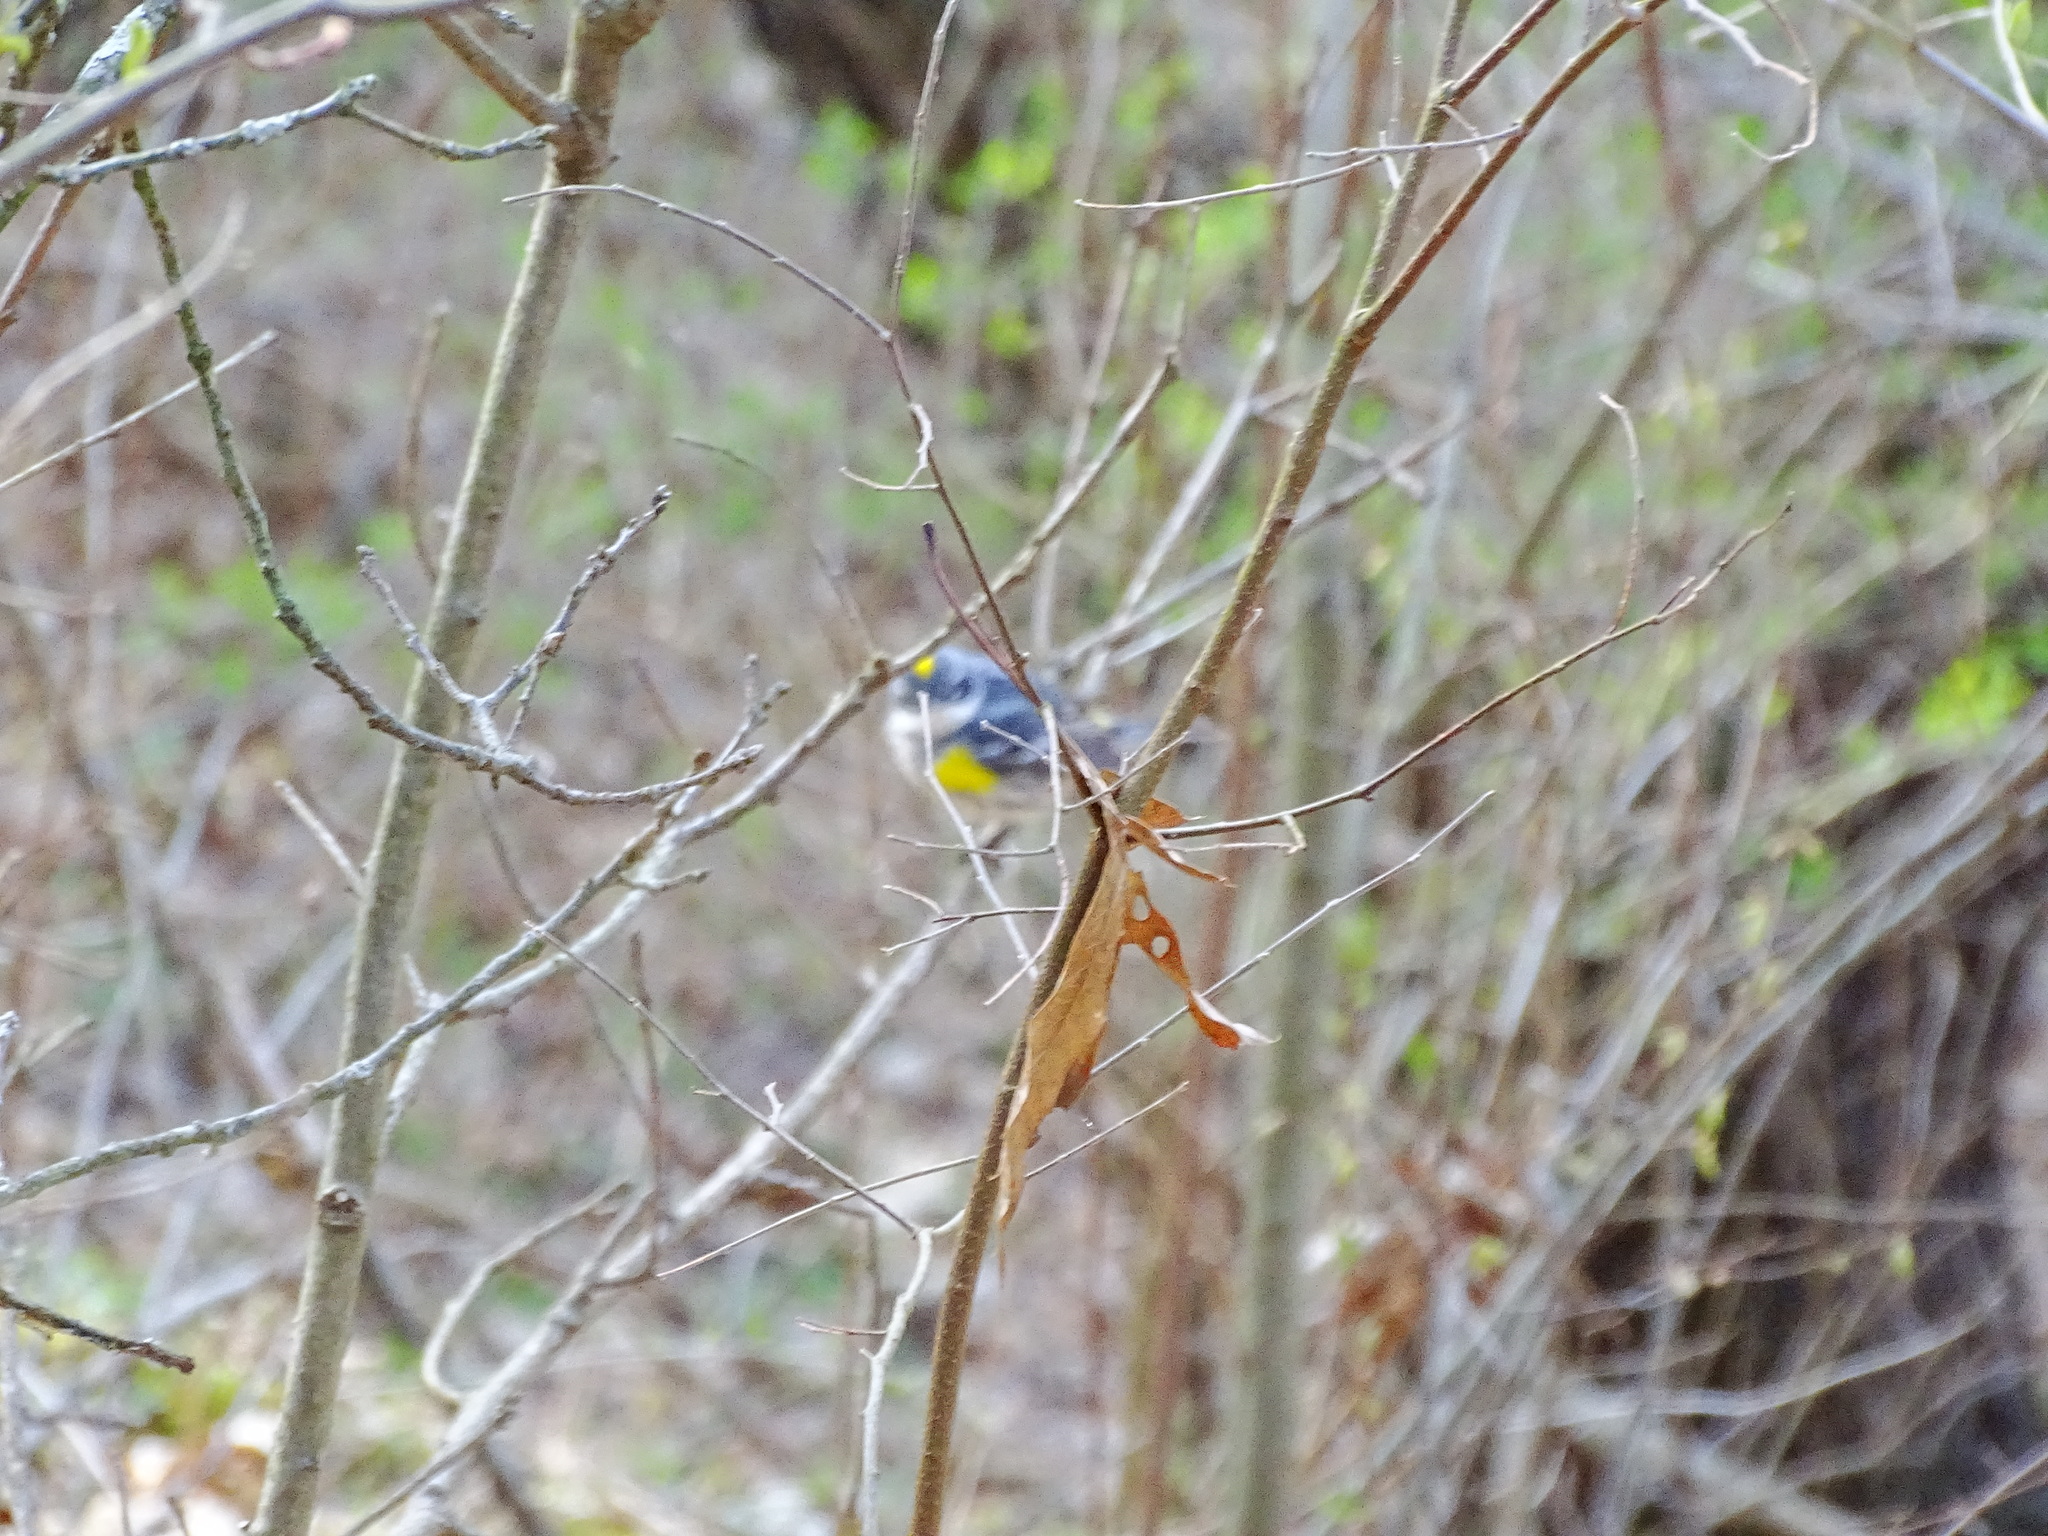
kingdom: Animalia
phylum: Chordata
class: Aves
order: Passeriformes
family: Parulidae
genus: Setophaga
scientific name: Setophaga coronata
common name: Myrtle warbler
